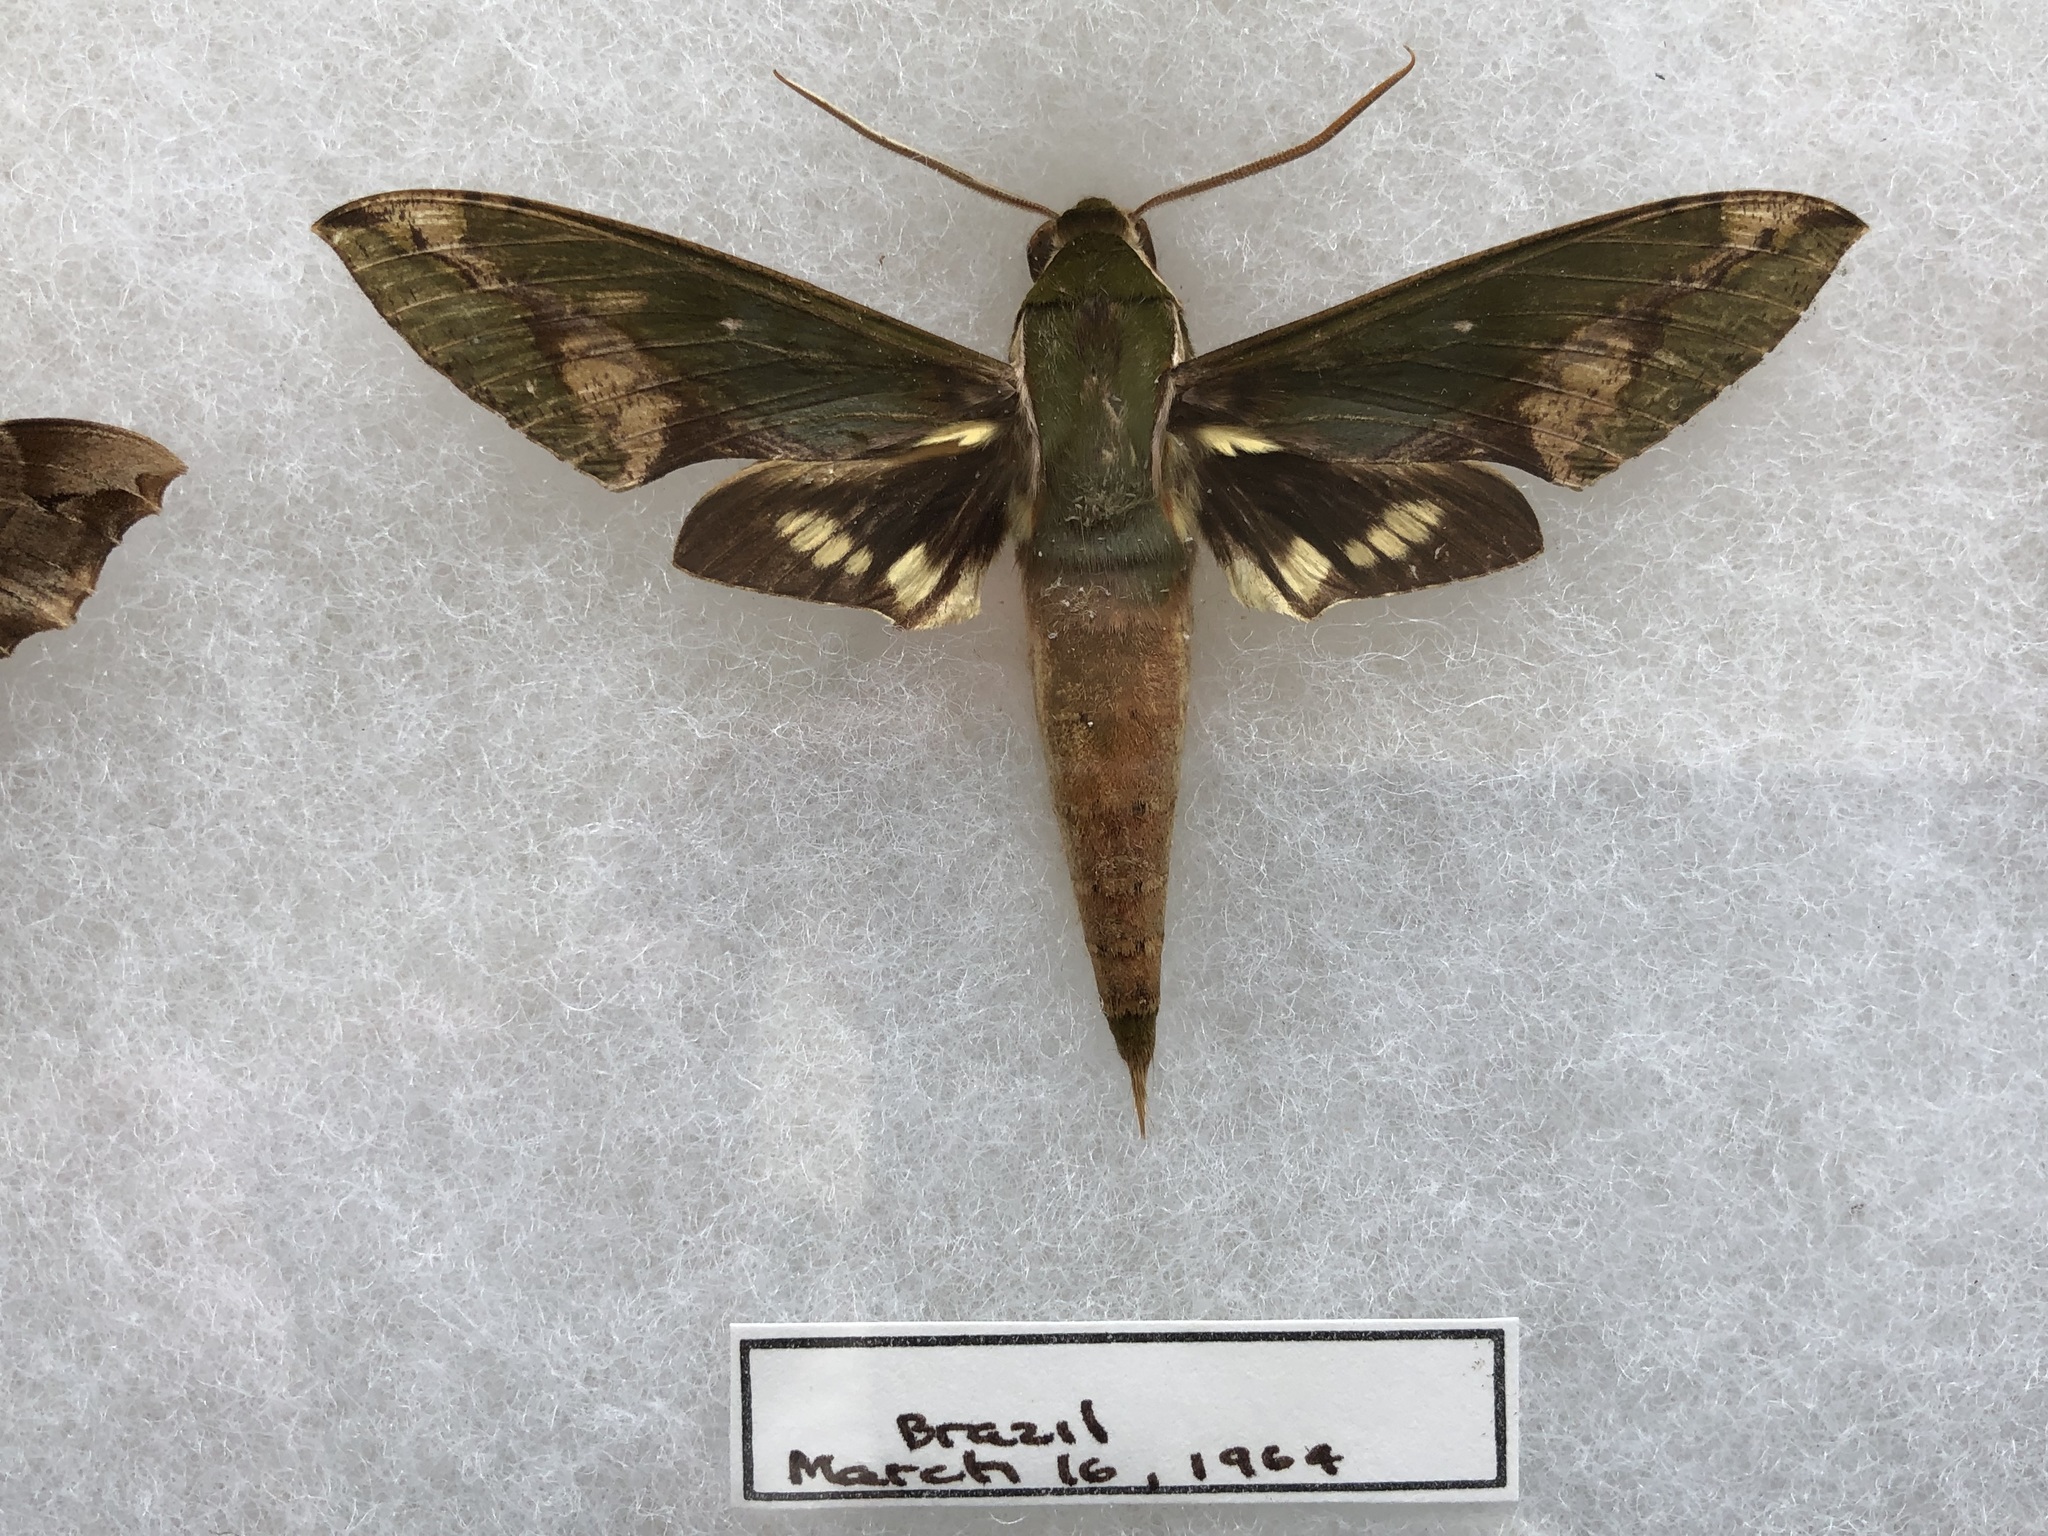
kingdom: Animalia
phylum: Arthropoda
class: Insecta
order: Lepidoptera
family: Sphingidae
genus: Xylophanes
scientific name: Xylophanes chiron
